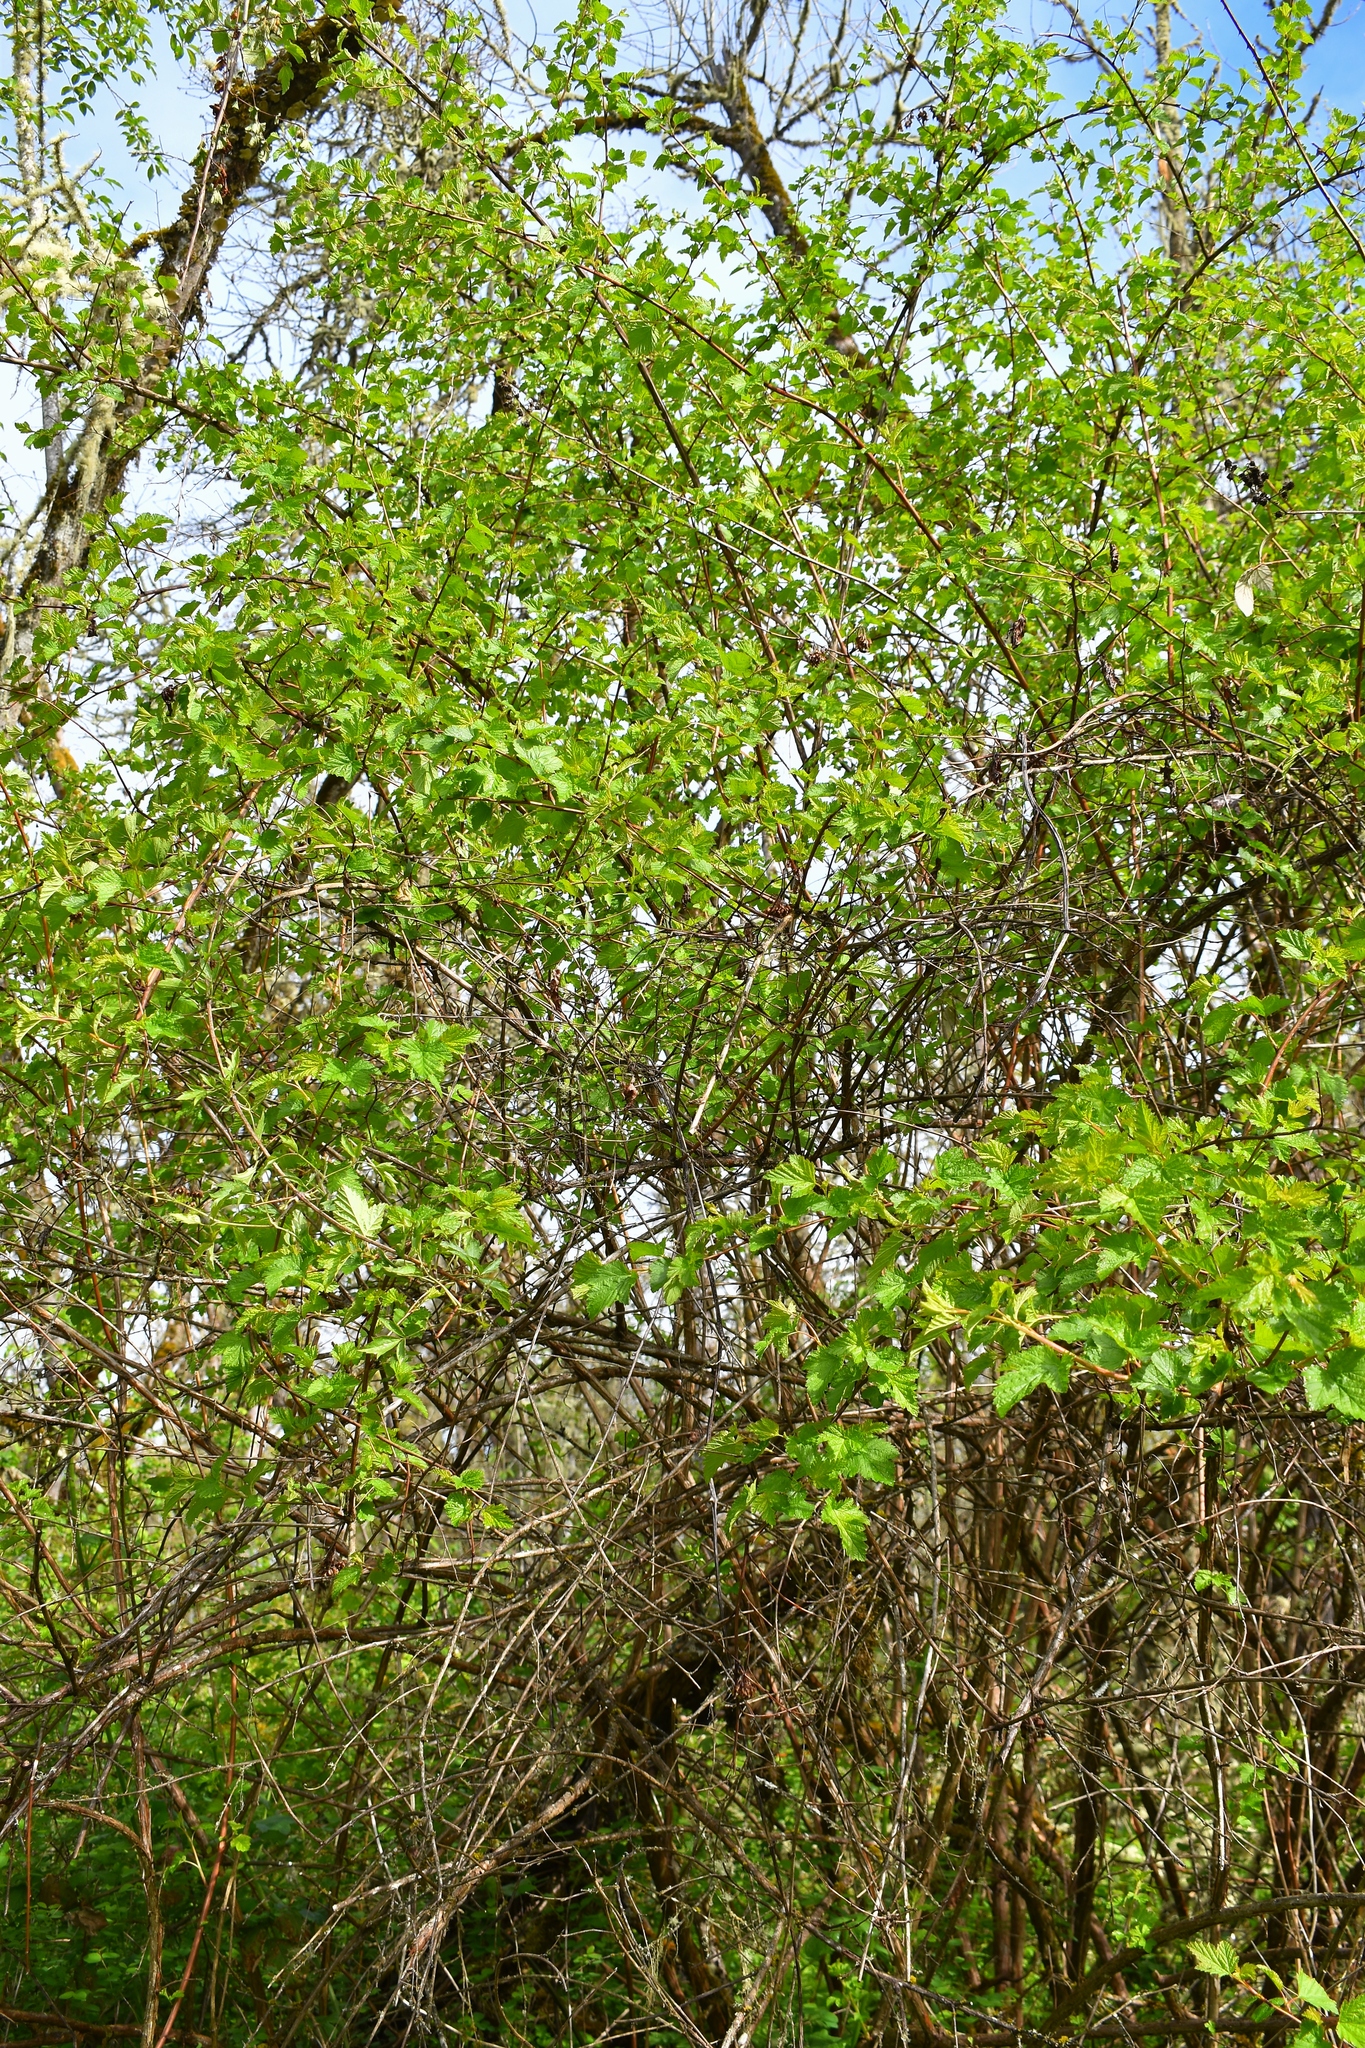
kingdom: Plantae
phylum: Tracheophyta
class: Magnoliopsida
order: Rosales
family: Rosaceae
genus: Physocarpus
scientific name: Physocarpus capitatus
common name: Pacific ninebark
